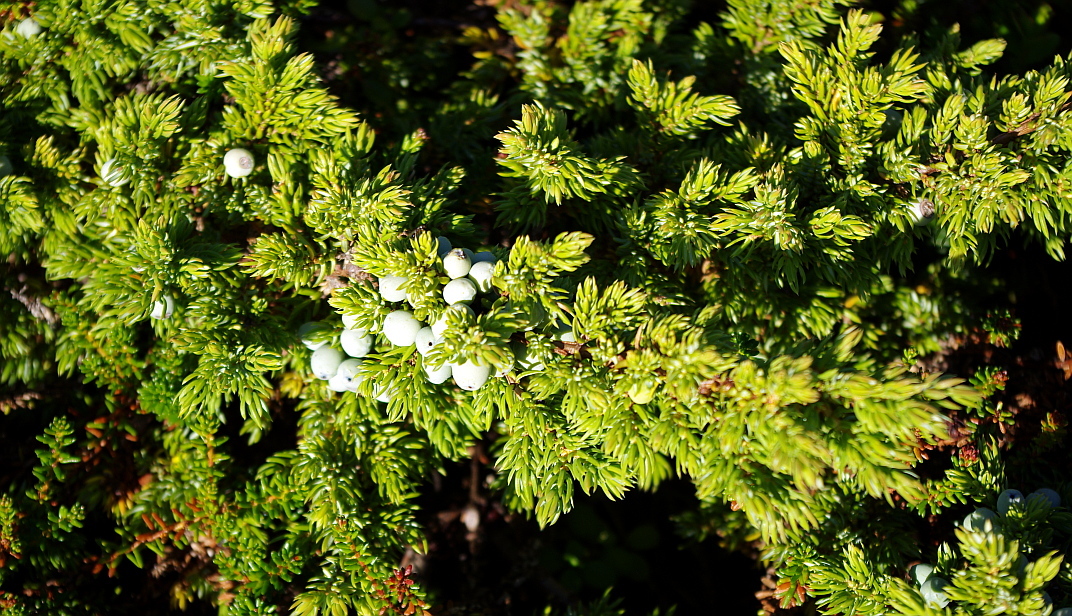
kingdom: Plantae
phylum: Tracheophyta
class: Pinopsida
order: Pinales
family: Cupressaceae
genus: Juniperus
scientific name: Juniperus communis
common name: Common juniper
